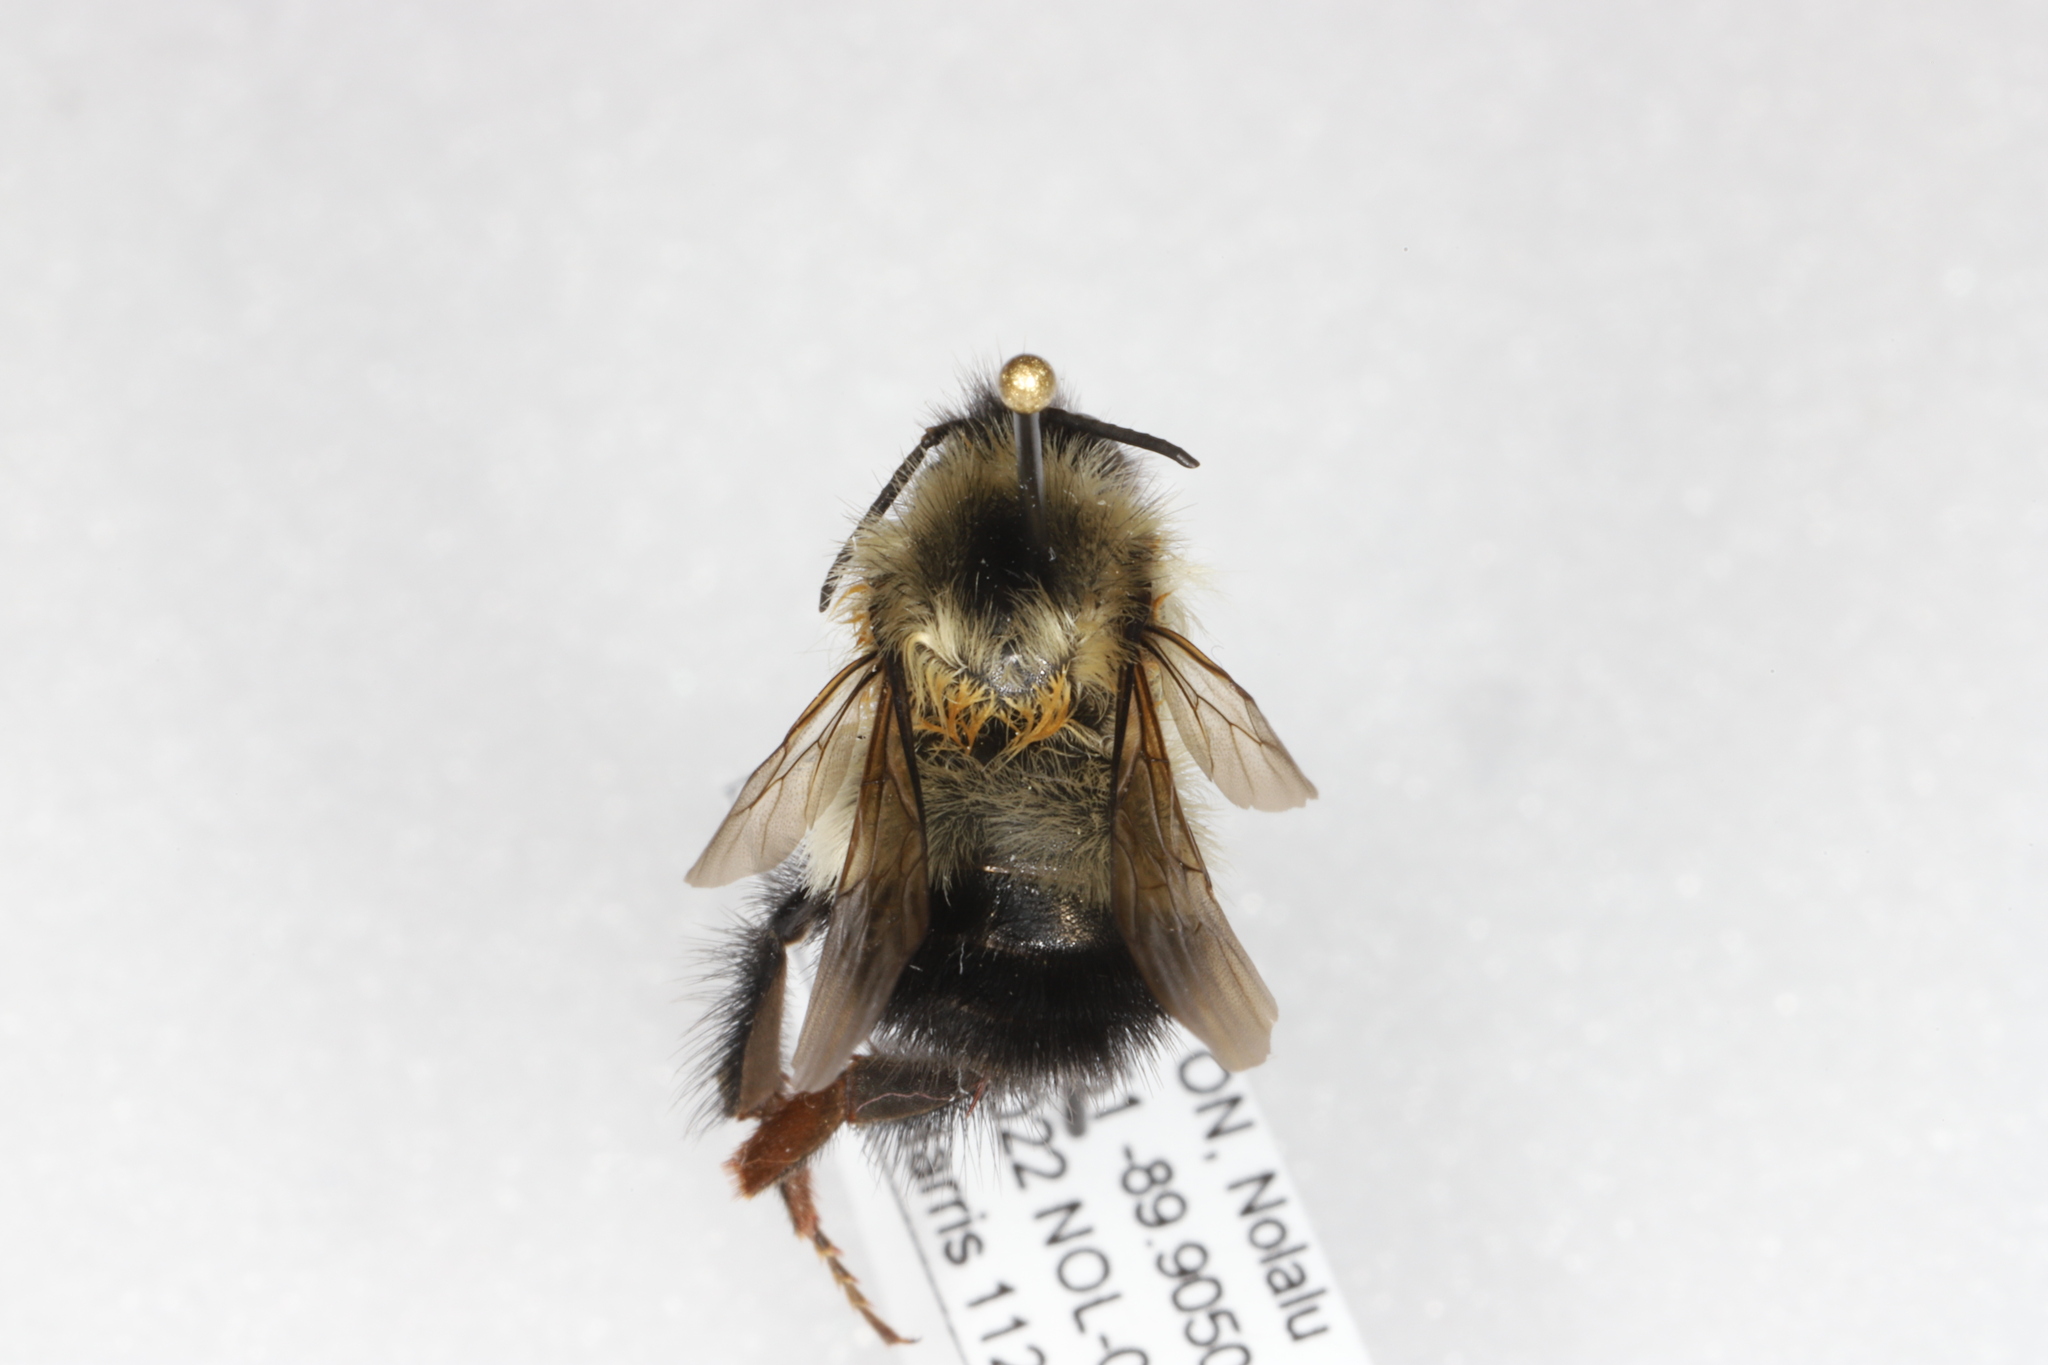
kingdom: Animalia
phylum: Arthropoda
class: Insecta
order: Hymenoptera
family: Apidae
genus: Bombus
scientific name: Bombus vagans
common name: Half-black bumble bee
